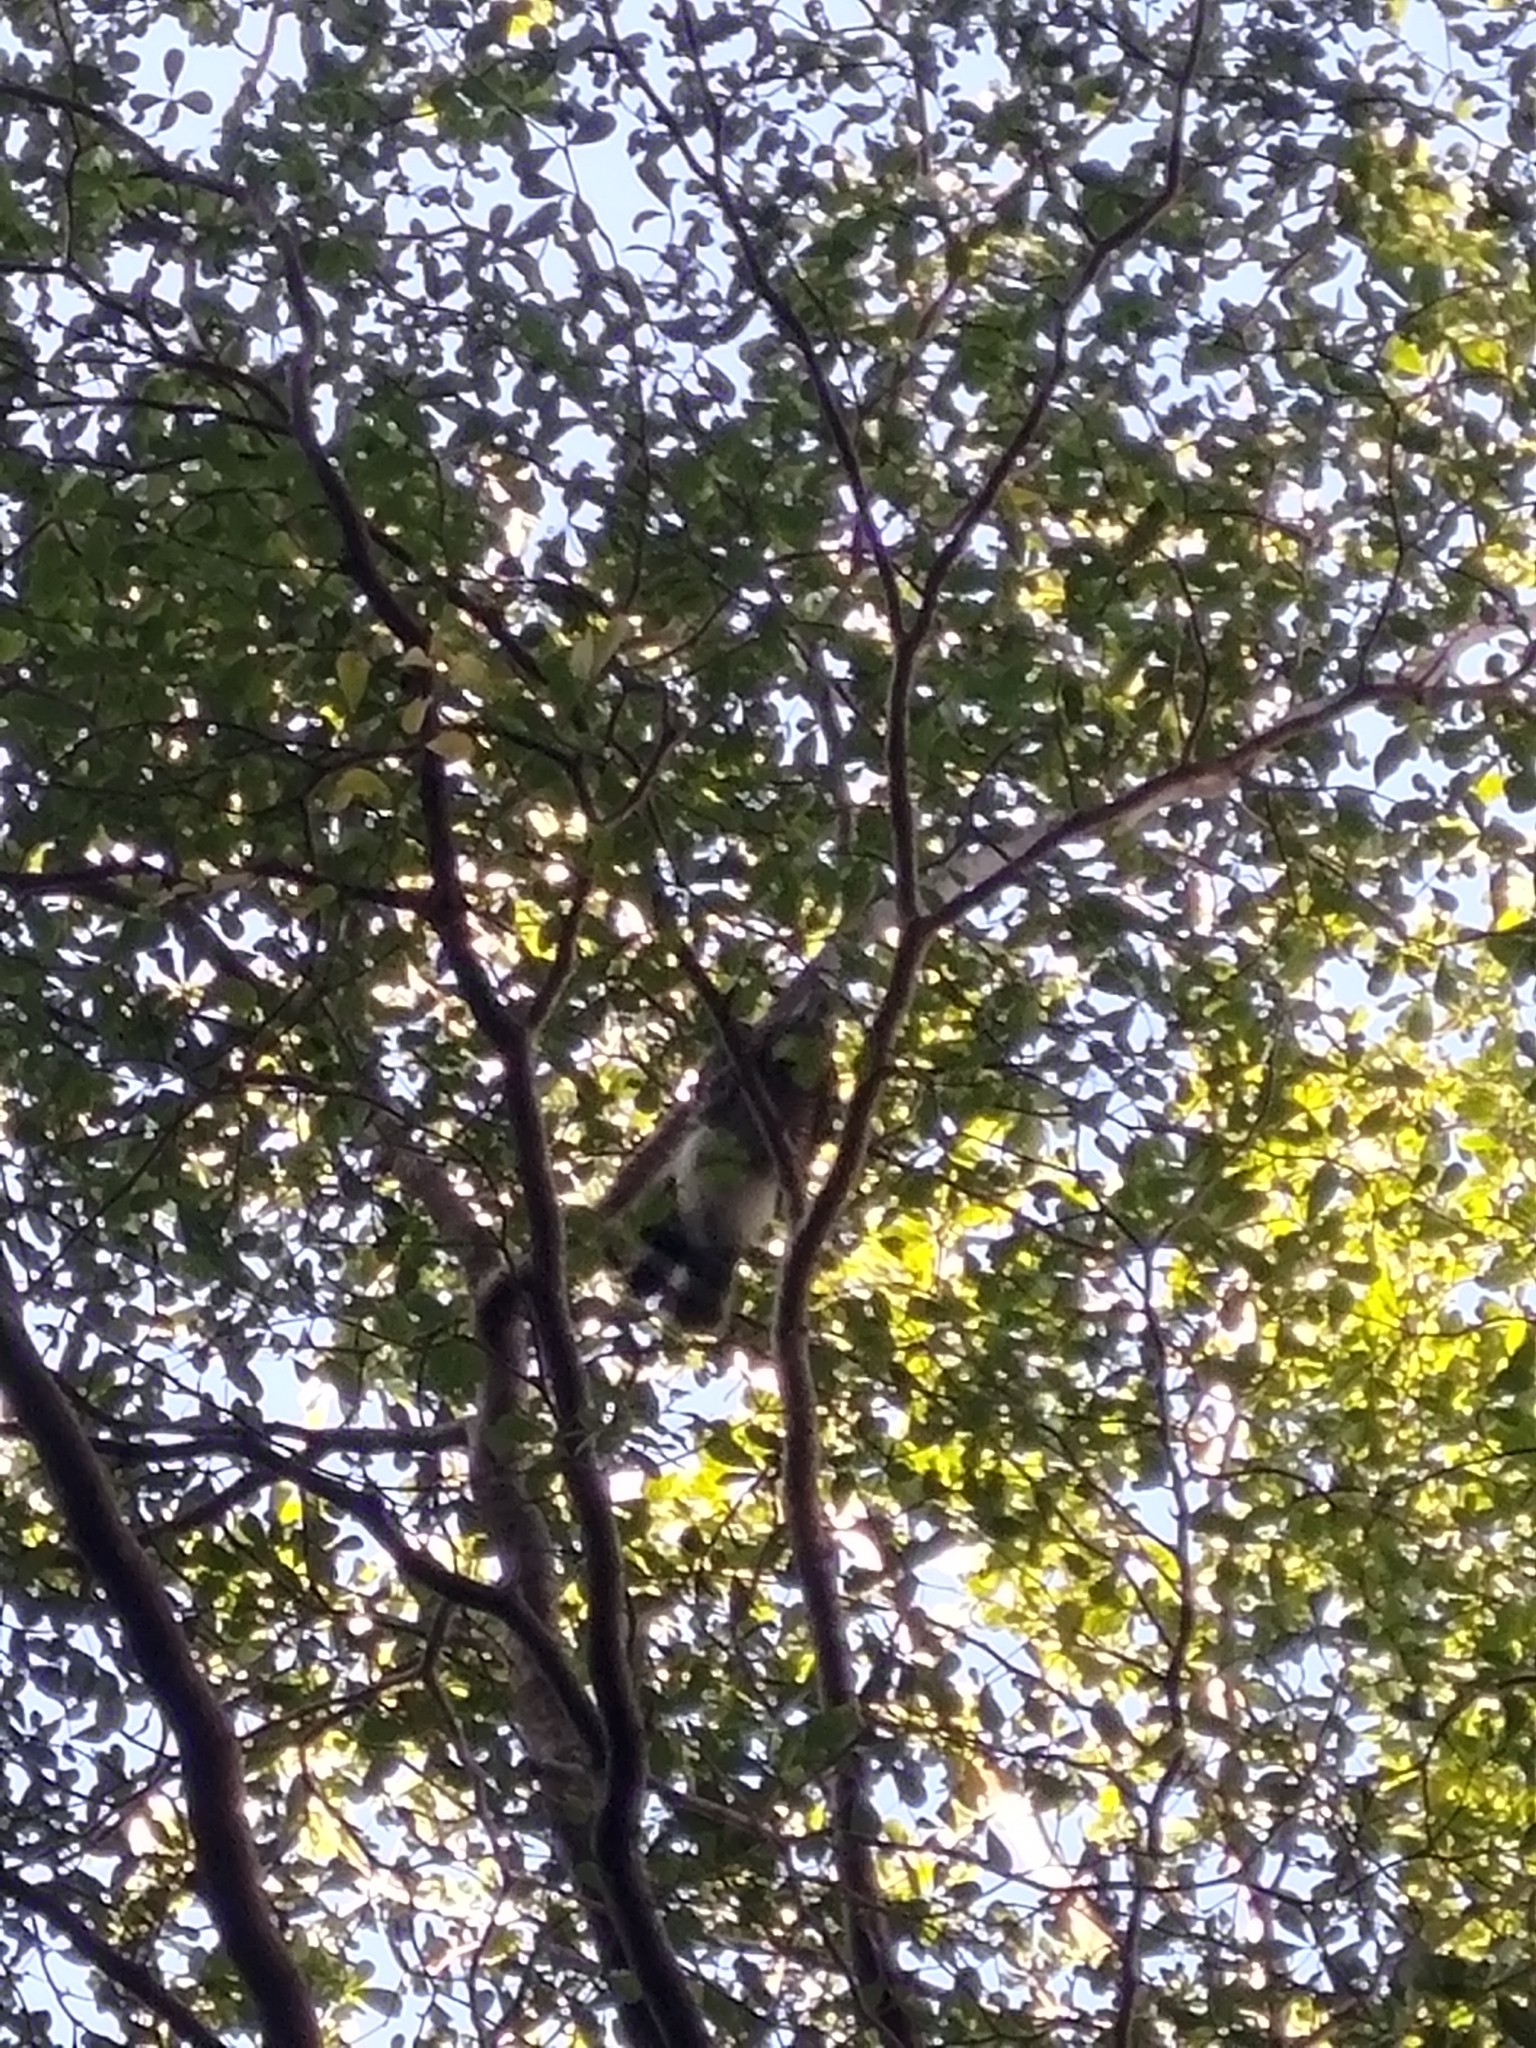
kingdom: Animalia
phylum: Chordata
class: Aves
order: Accipitriformes
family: Accipitridae
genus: Accipiter
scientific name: Accipiter trivirgatus
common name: Crested goshawk
